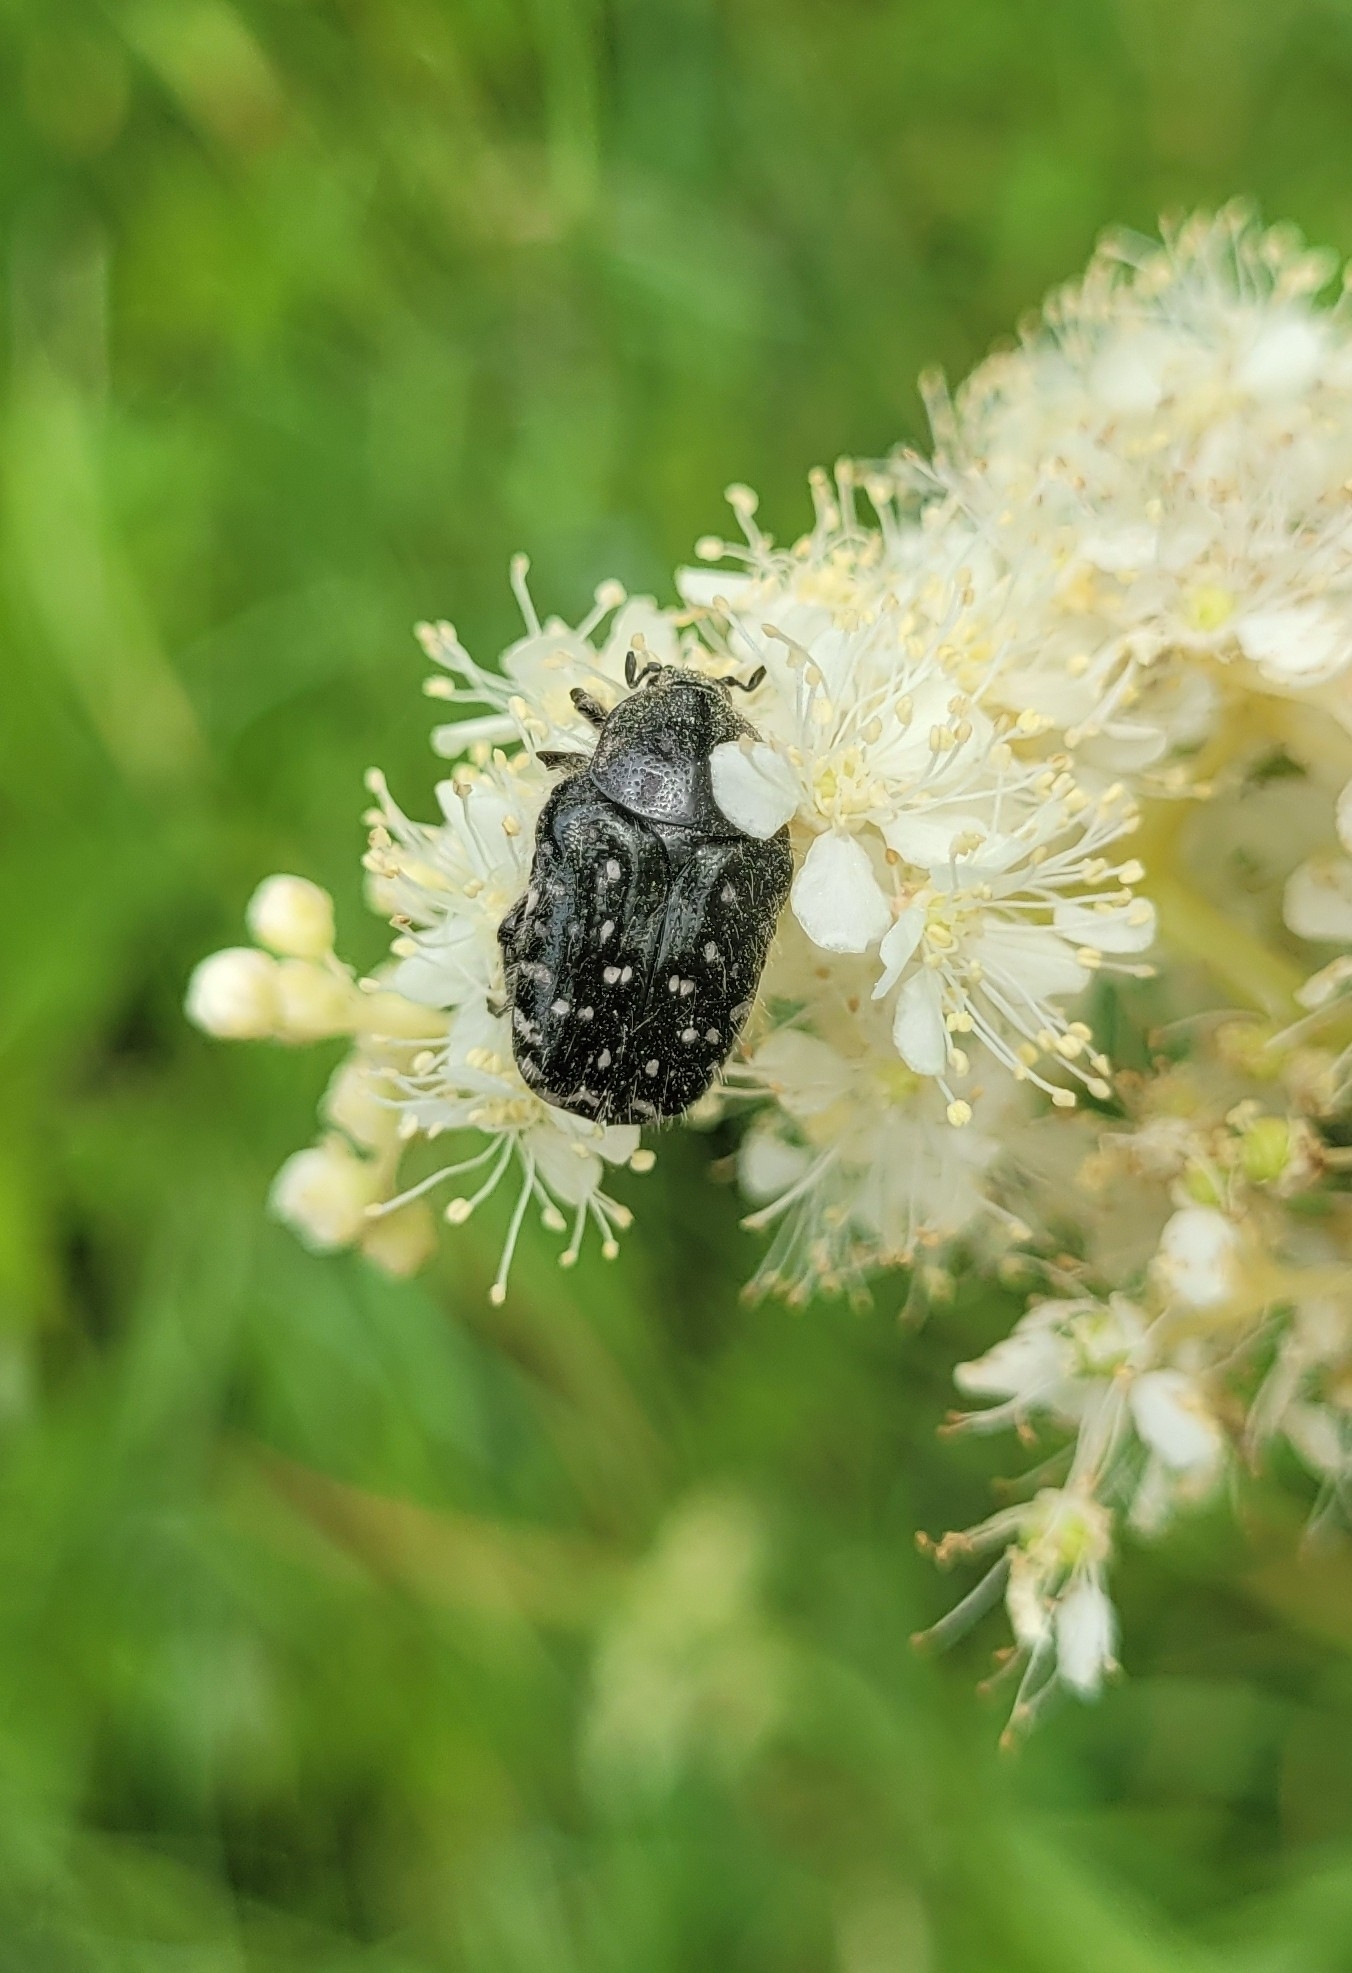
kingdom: Animalia
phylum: Arthropoda
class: Insecta
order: Coleoptera
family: Scarabaeidae
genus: Oxythyrea
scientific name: Oxythyrea funesta
